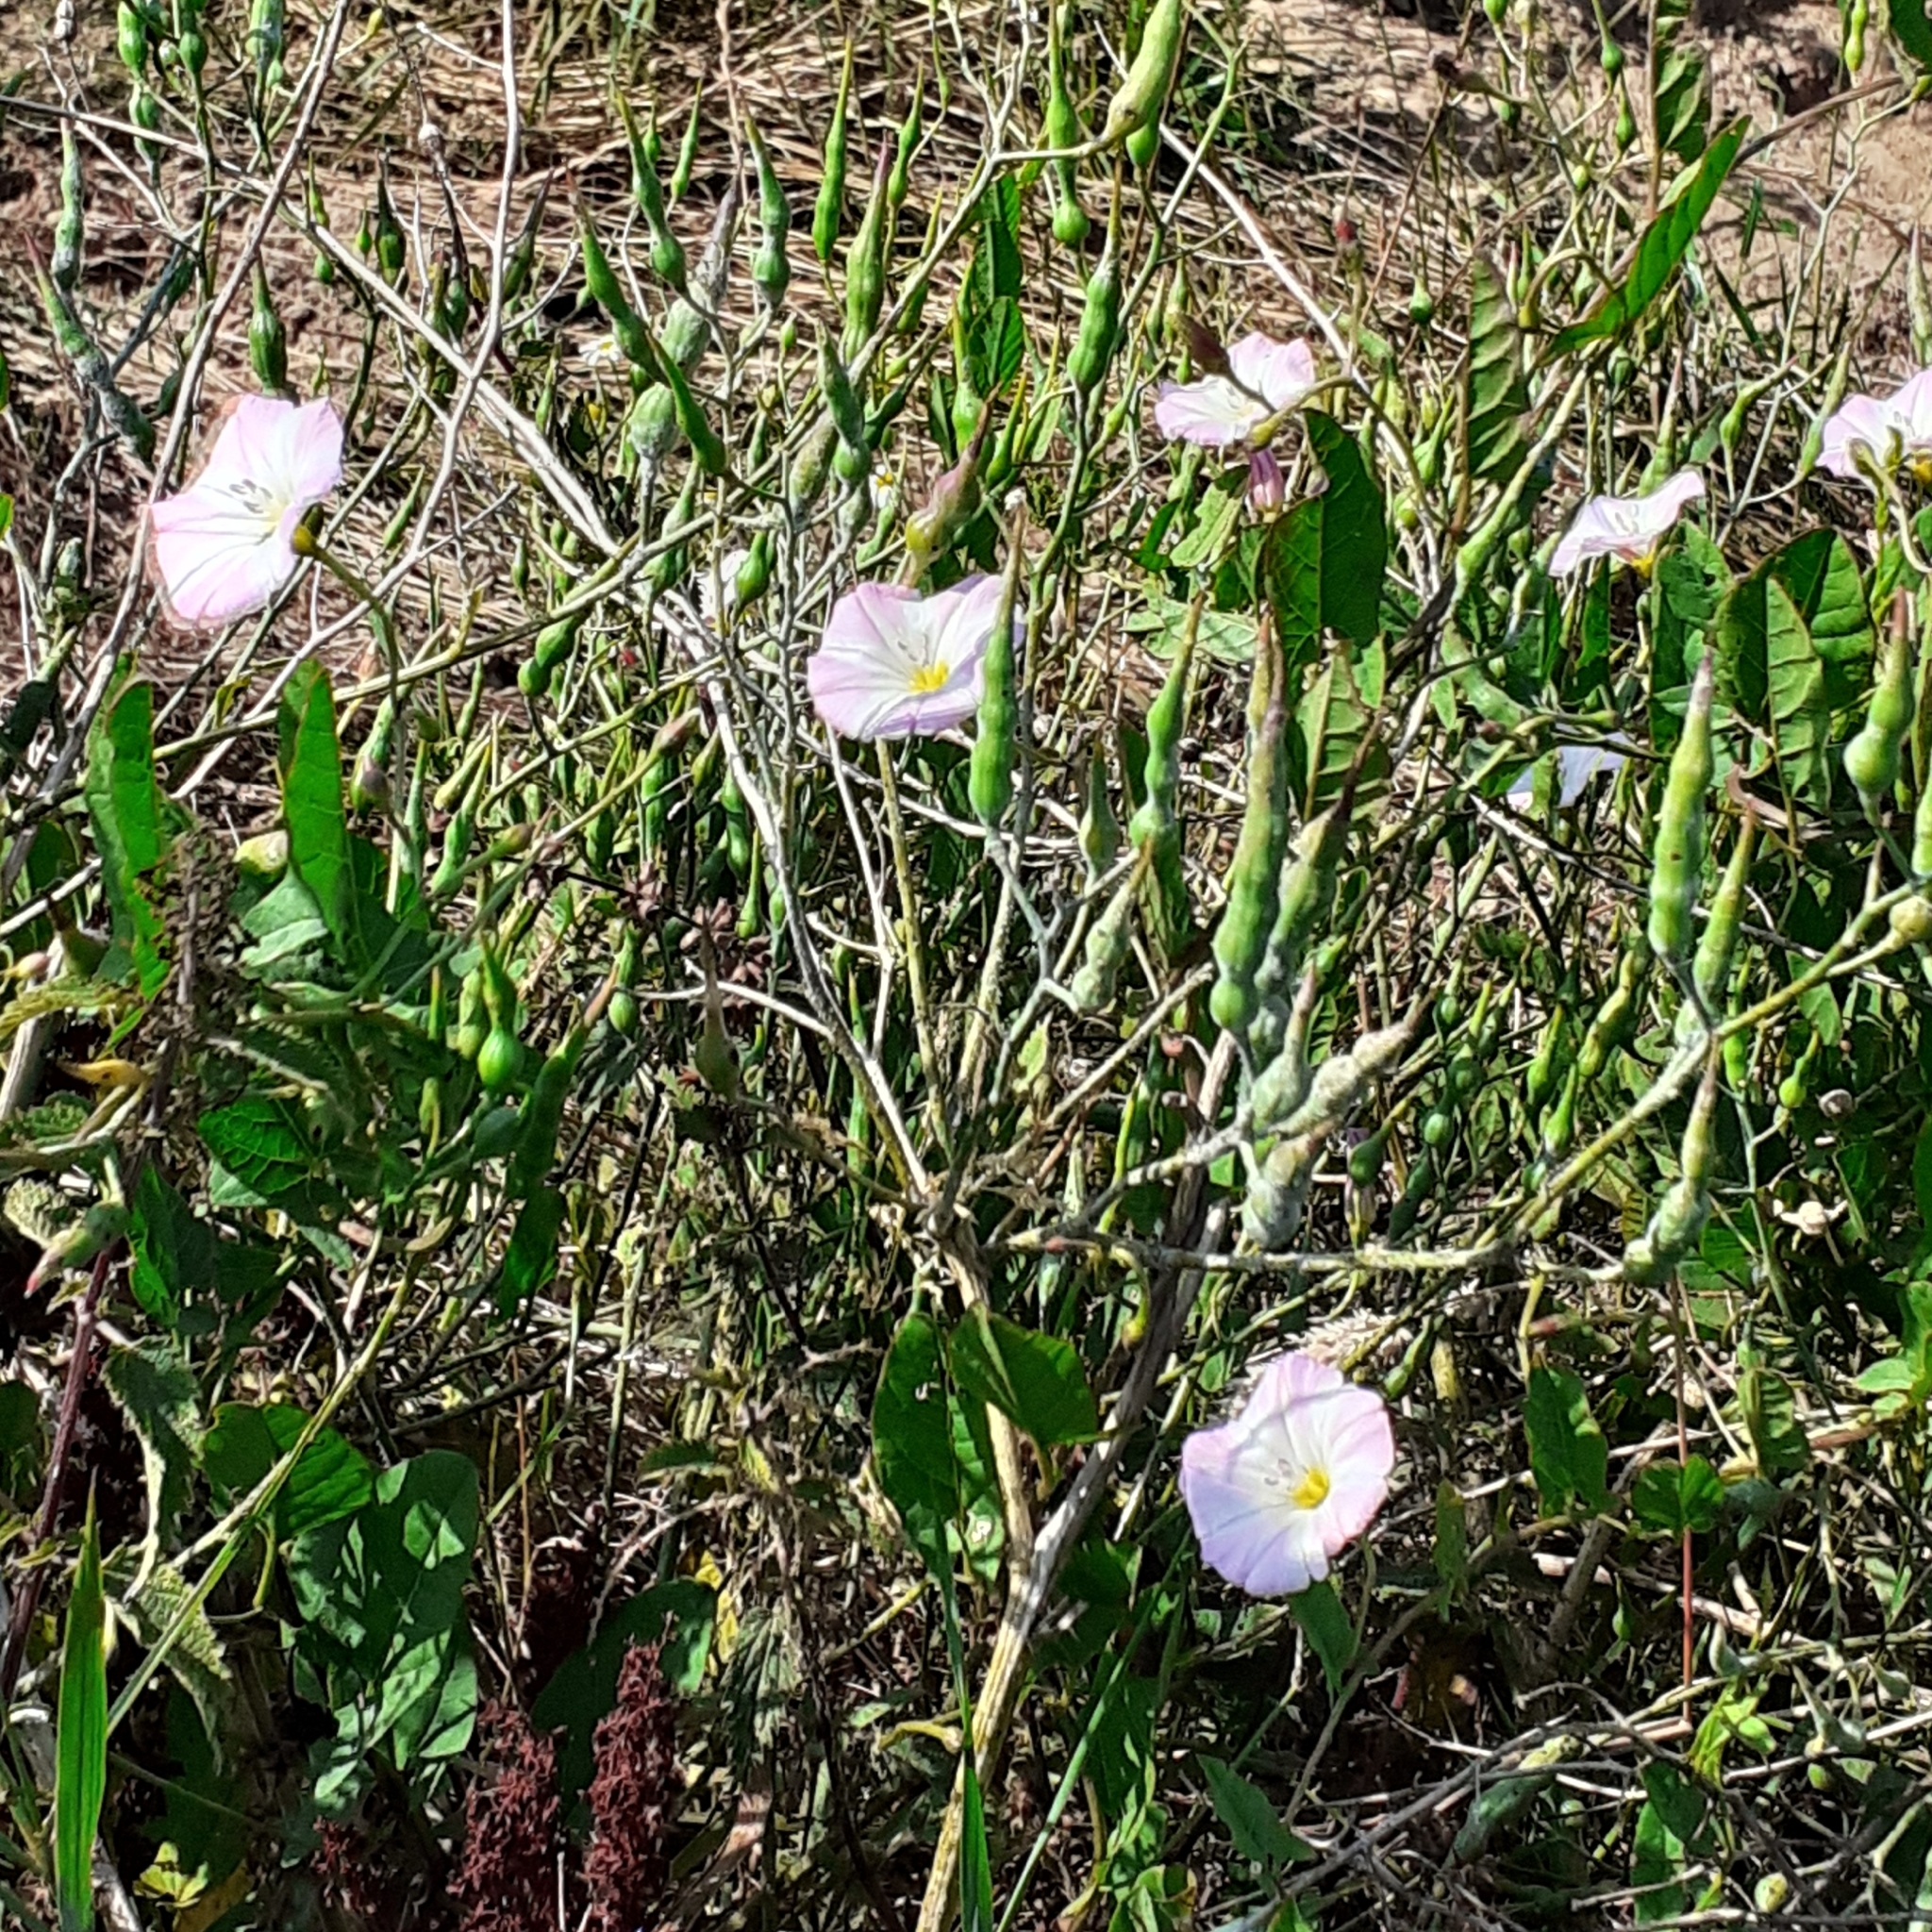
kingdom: Plantae
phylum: Tracheophyta
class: Magnoliopsida
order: Solanales
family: Convolvulaceae
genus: Convolvulus
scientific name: Convolvulus arvensis
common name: Field bindweed
